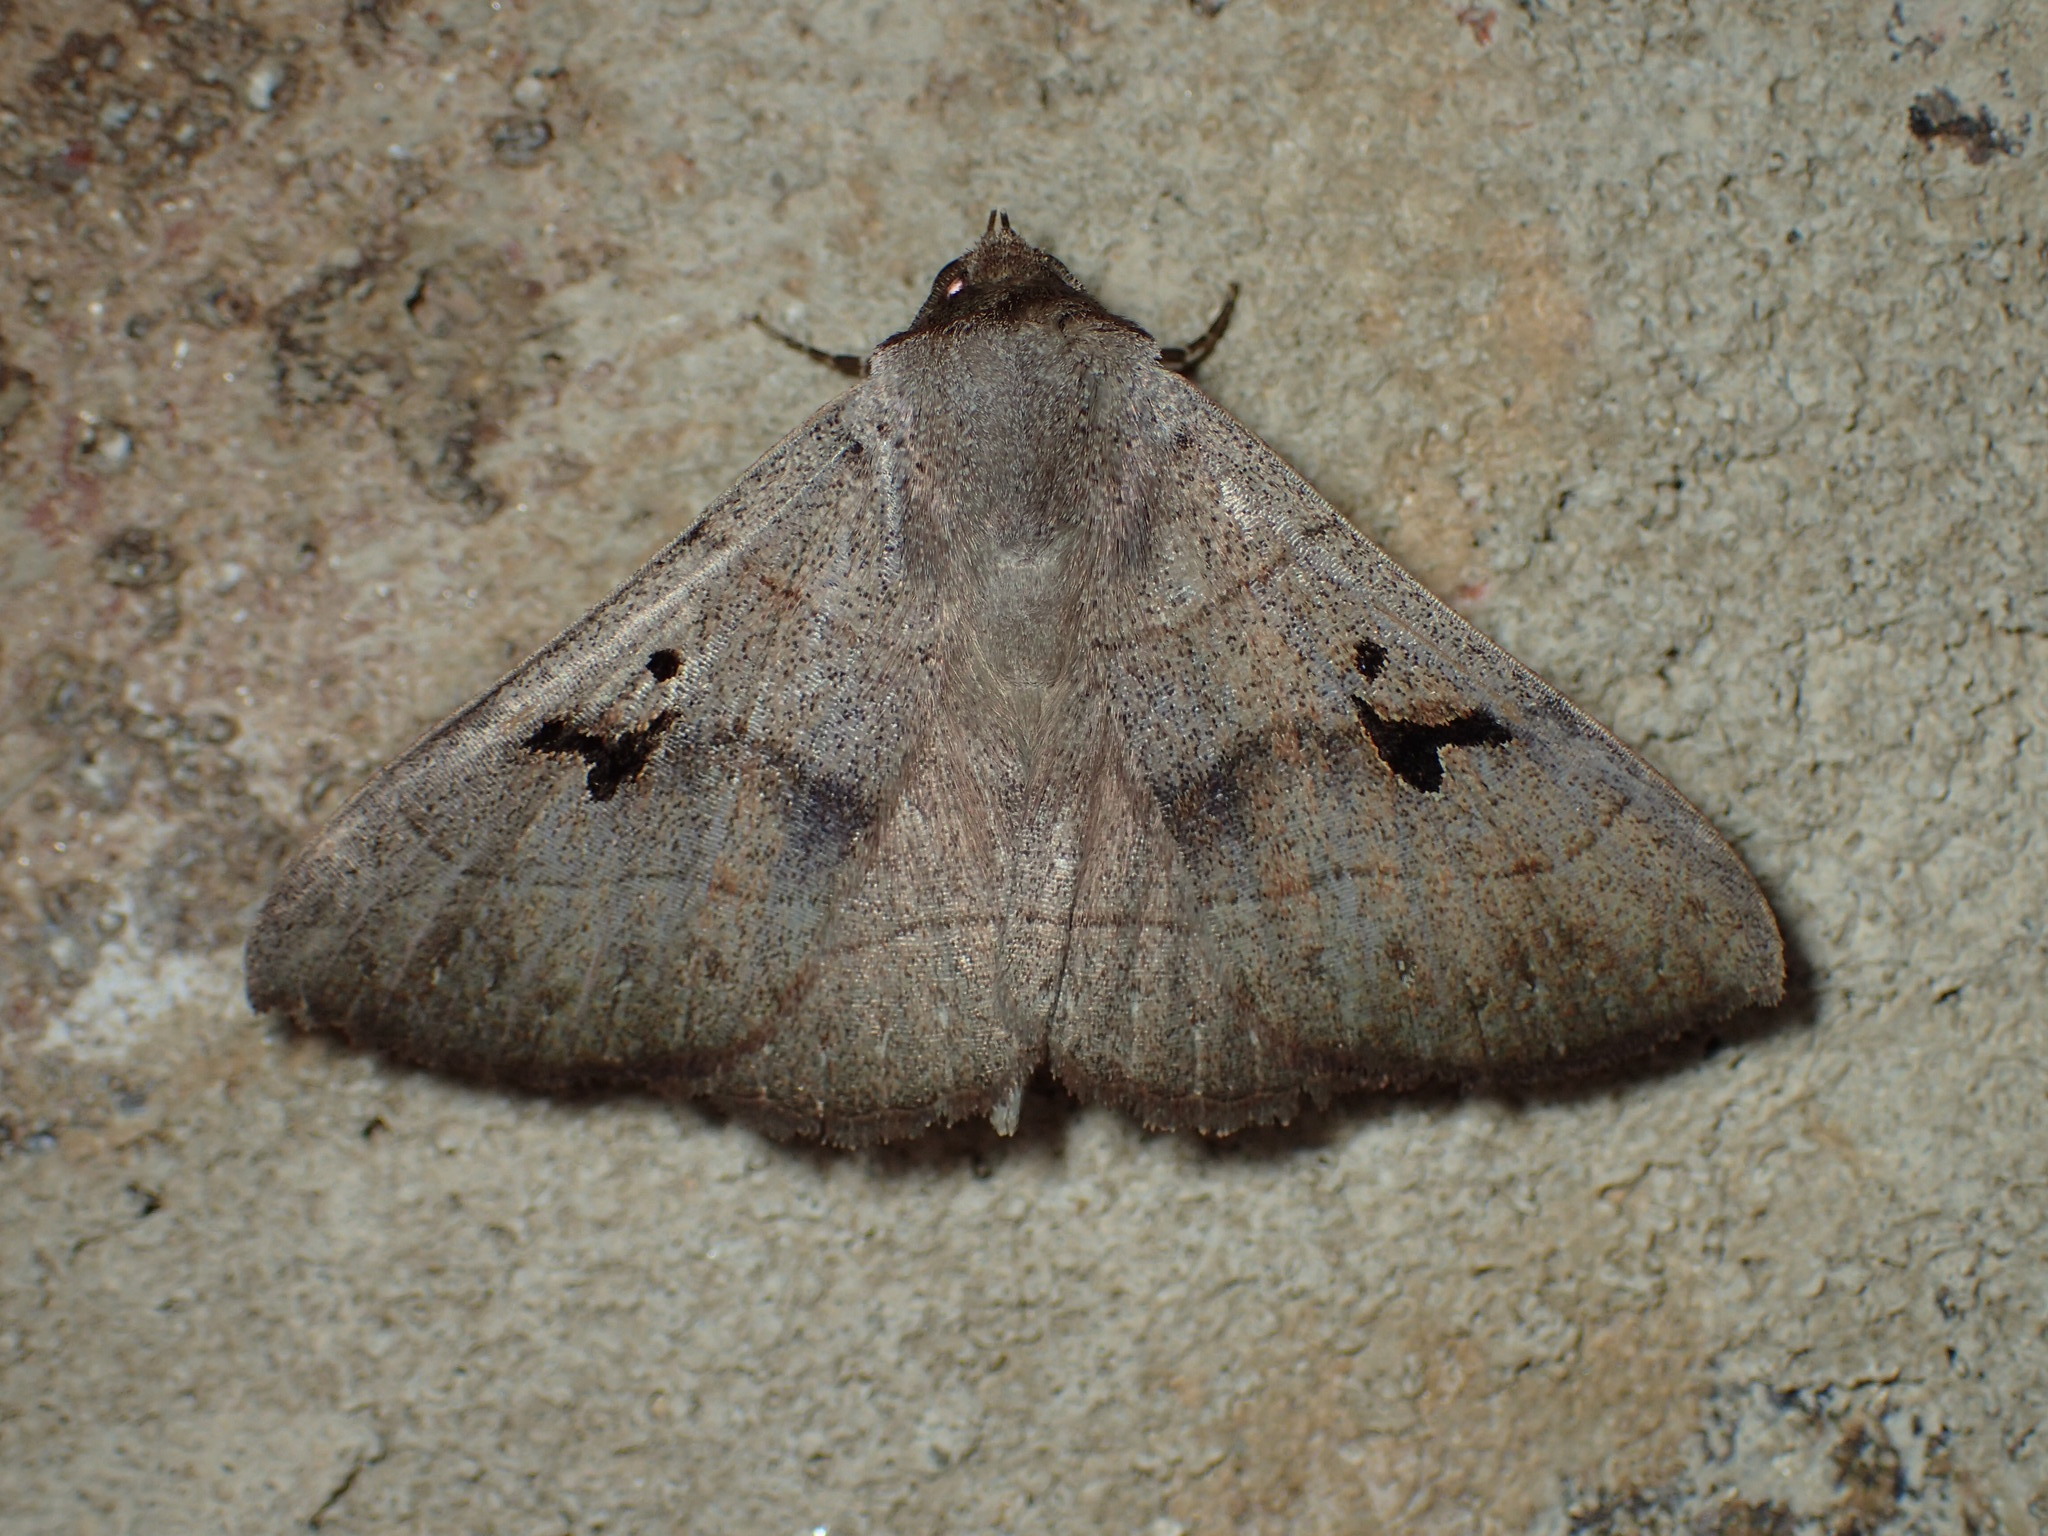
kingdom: Animalia
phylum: Arthropoda
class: Insecta
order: Lepidoptera
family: Erebidae
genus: Panopoda
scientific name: Panopoda carneicosta
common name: Brown panopoda moth
